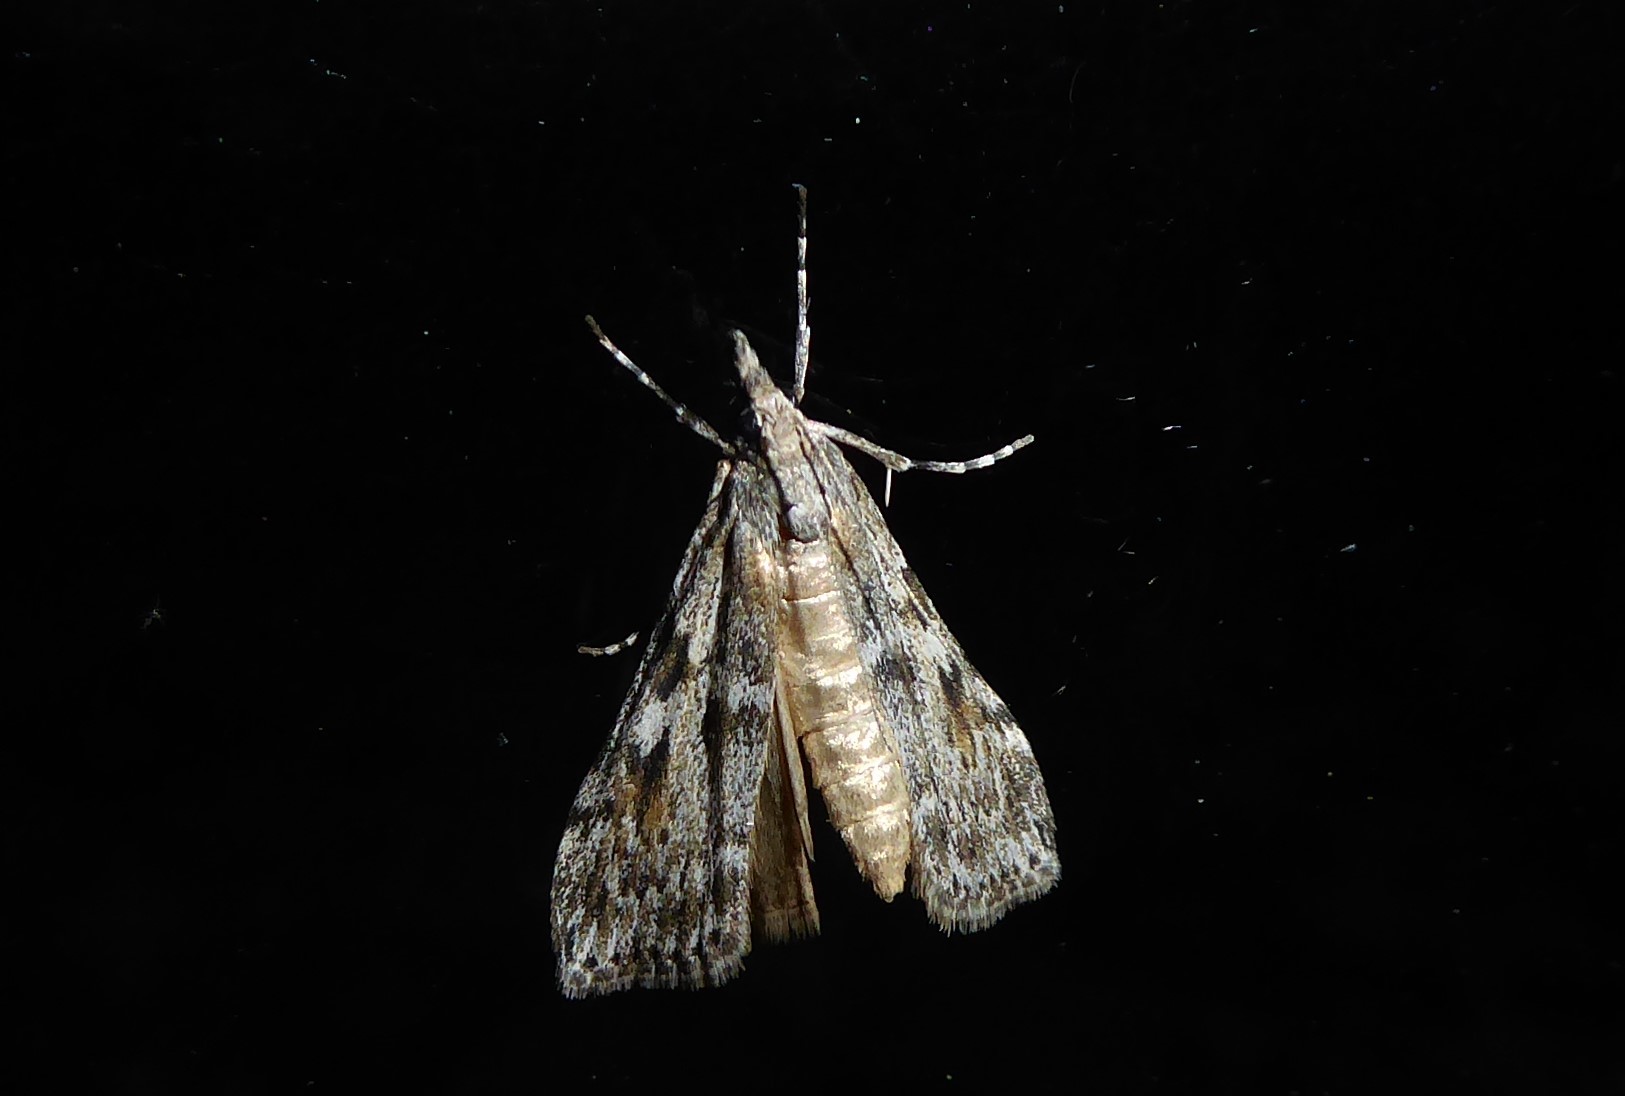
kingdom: Animalia
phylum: Arthropoda
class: Insecta
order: Lepidoptera
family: Crambidae
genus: Scoparia
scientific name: Scoparia halopis
